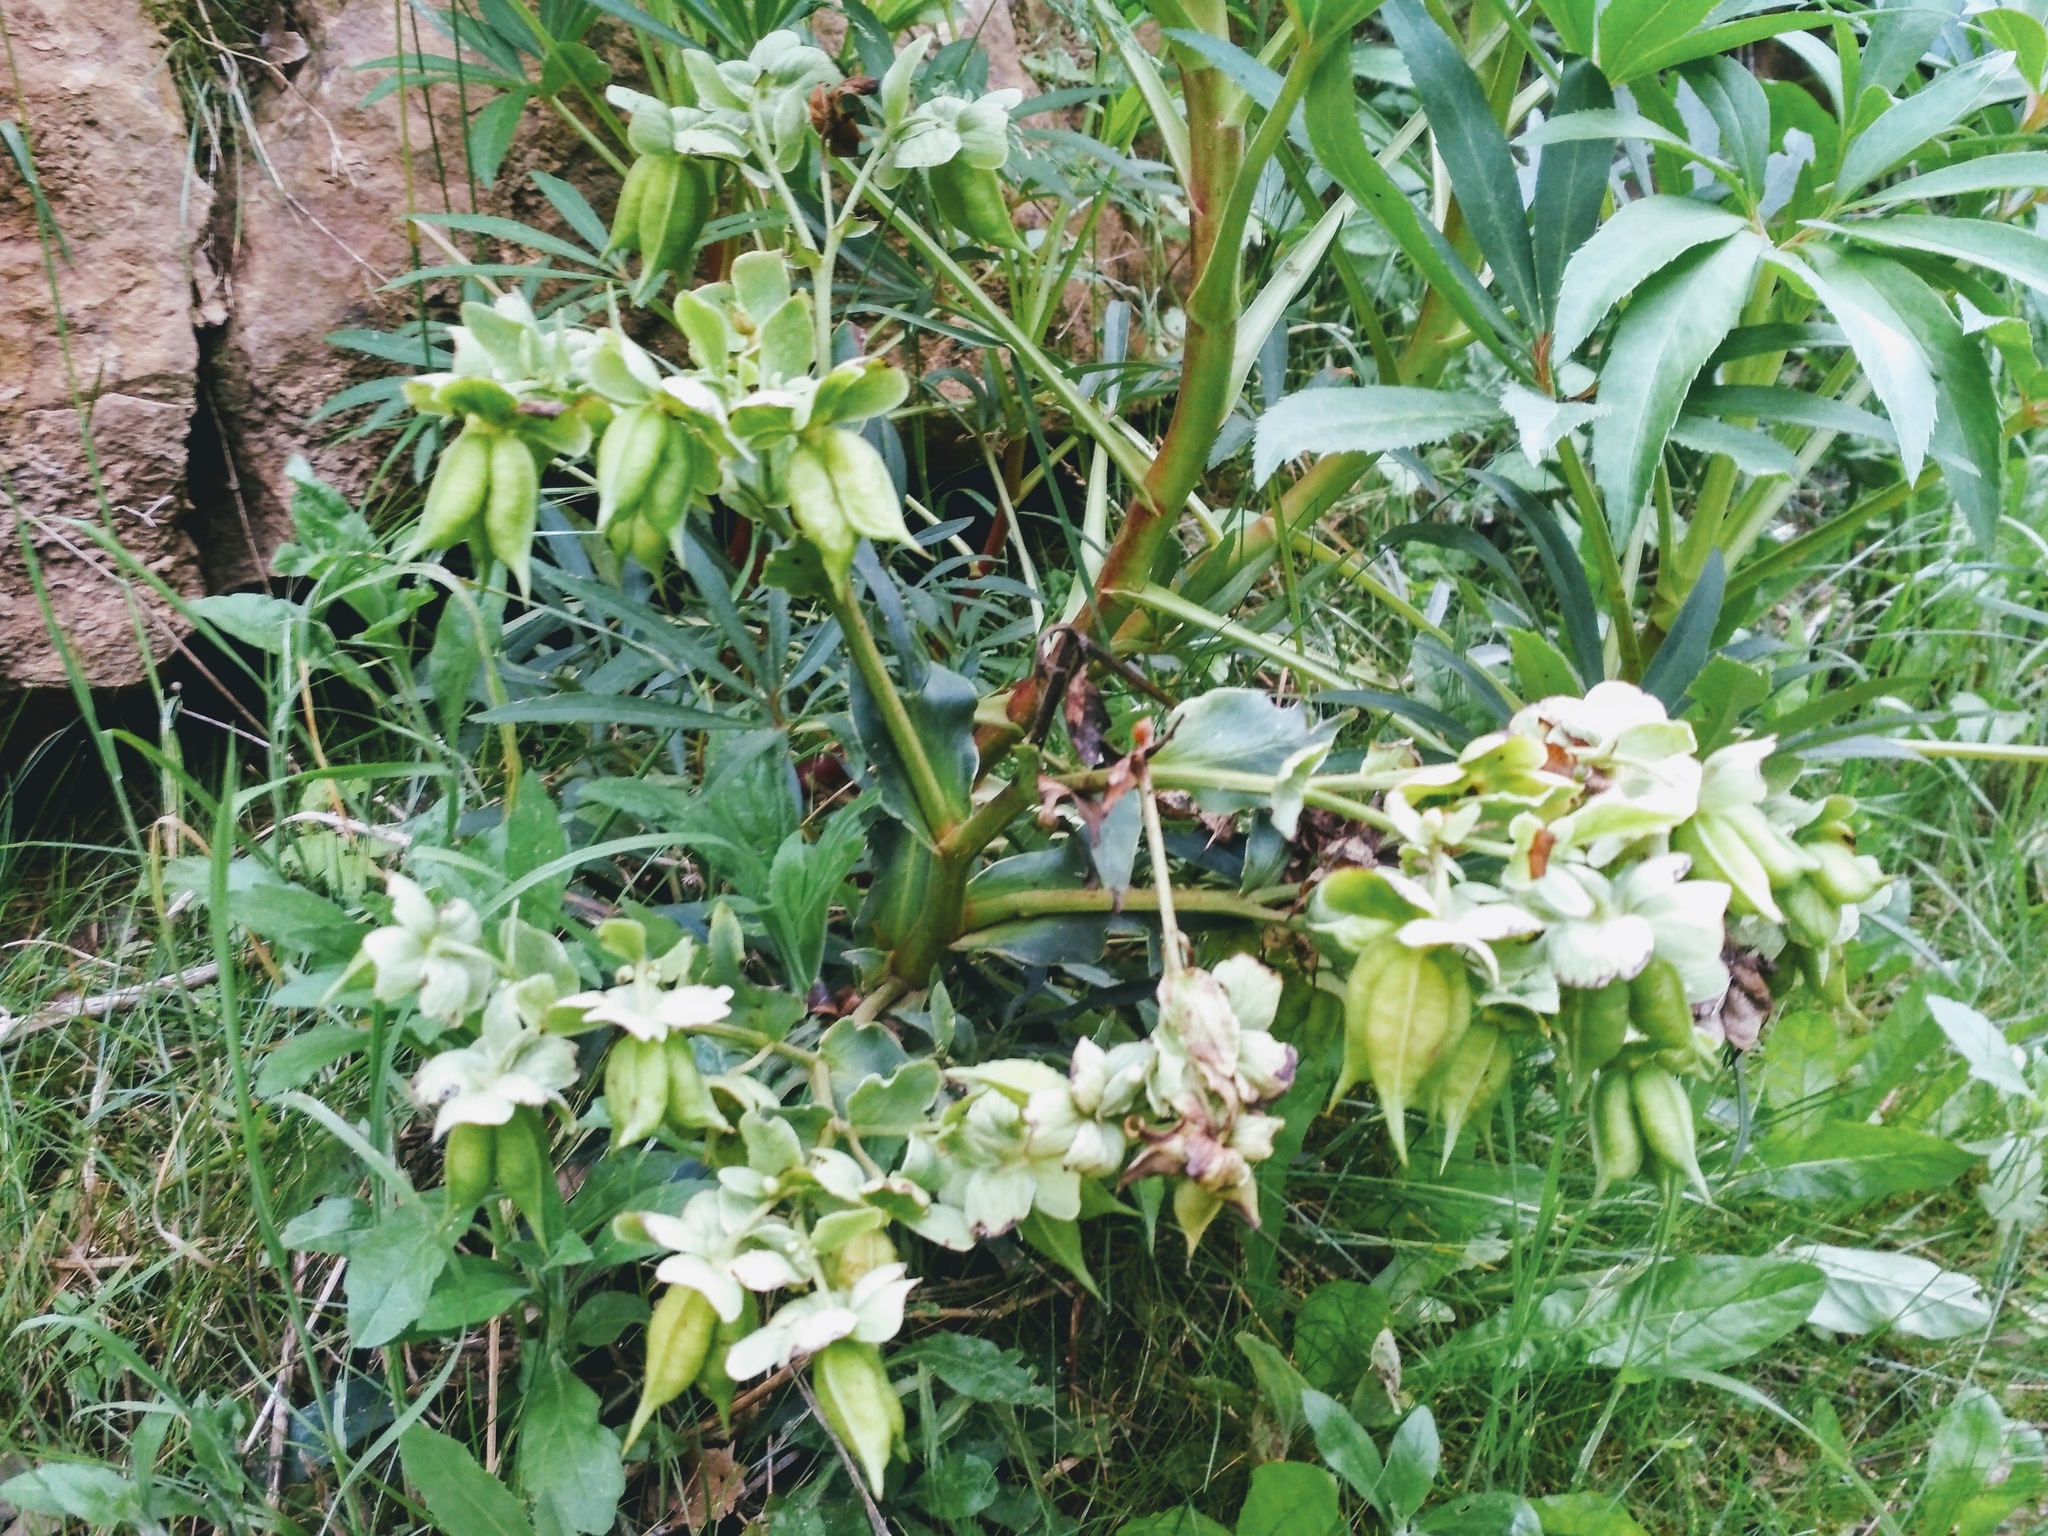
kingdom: Plantae
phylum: Tracheophyta
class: Magnoliopsida
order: Ranunculales
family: Ranunculaceae
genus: Helleborus
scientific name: Helleborus foetidus
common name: Stinking hellebore
